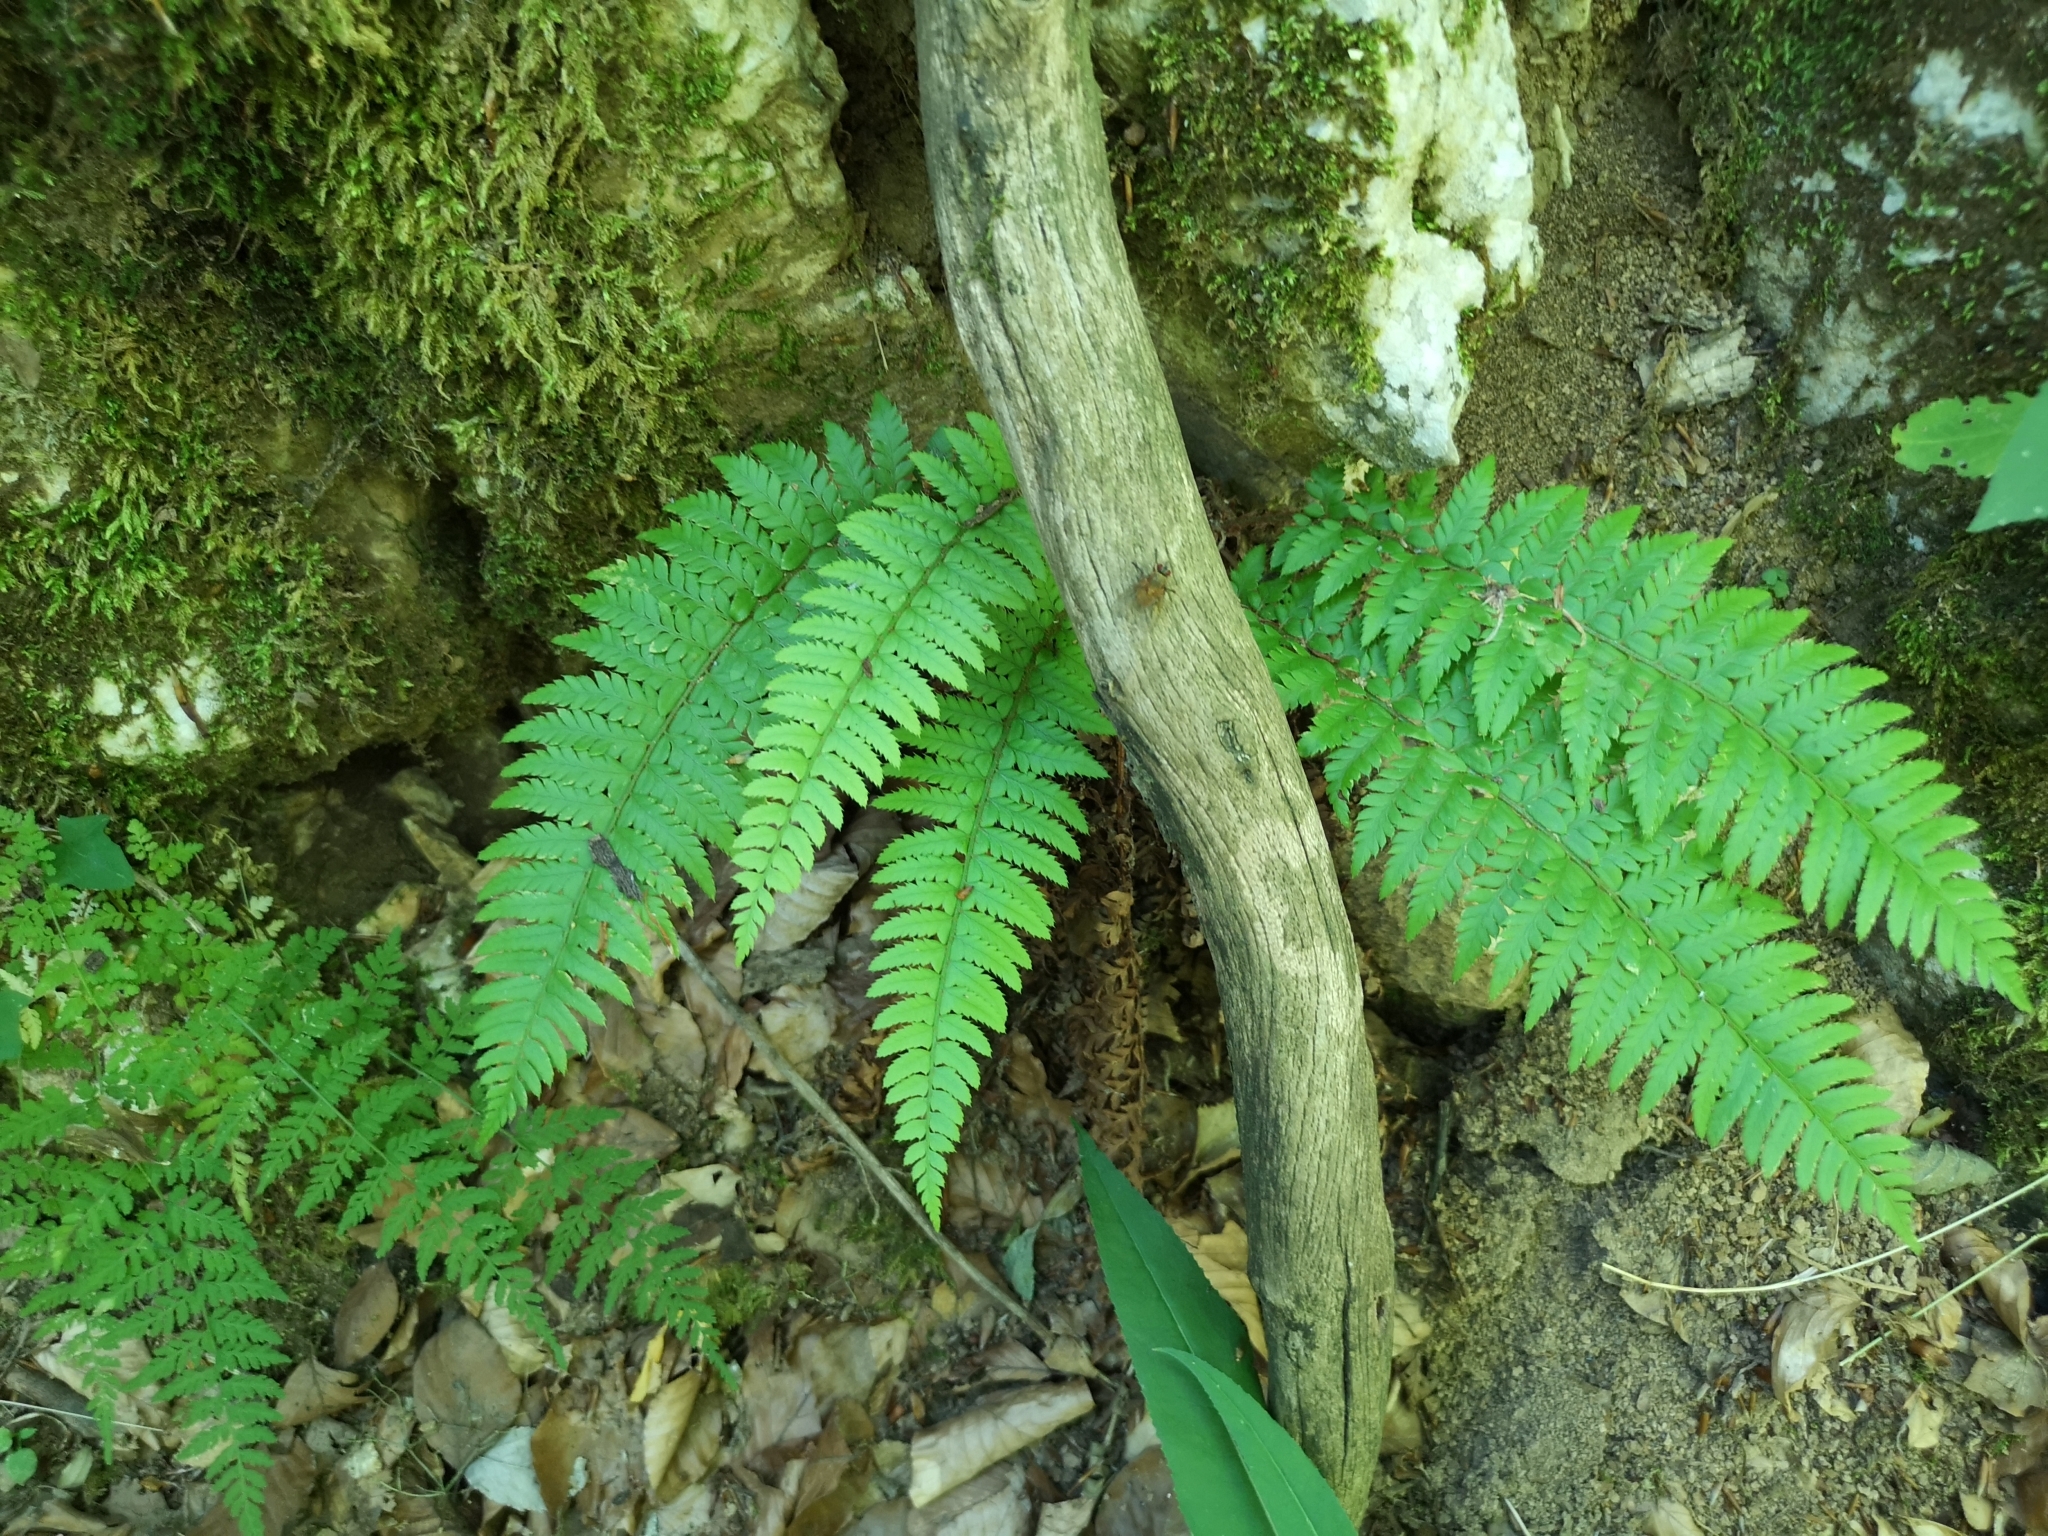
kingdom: Plantae
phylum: Tracheophyta
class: Polypodiopsida
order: Polypodiales
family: Dryopteridaceae
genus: Polystichum
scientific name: Polystichum aculeatum
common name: Hard shield-fern
